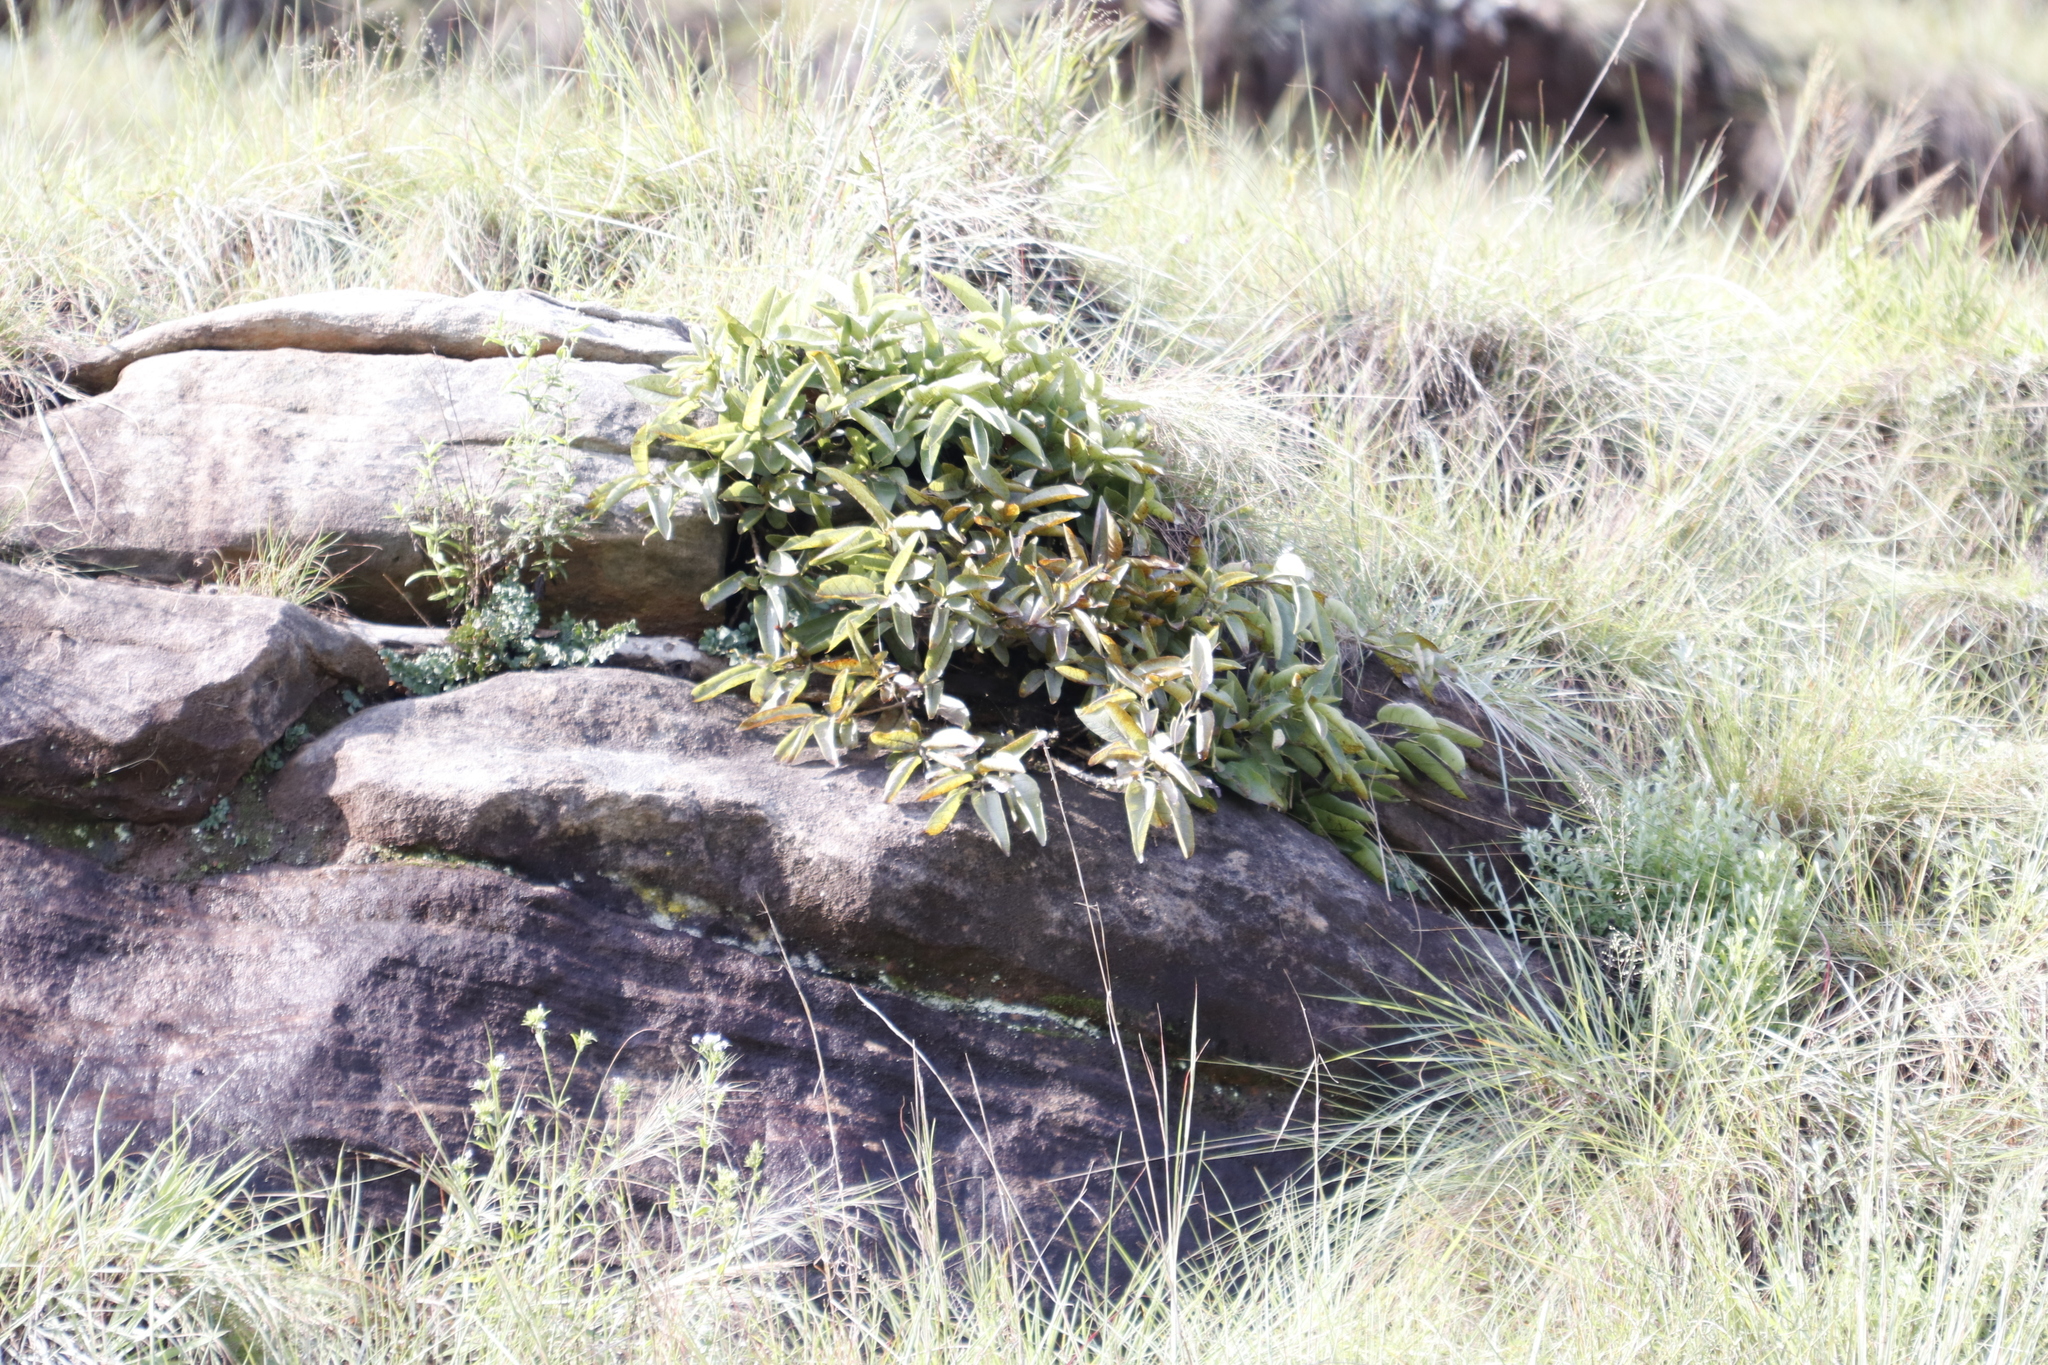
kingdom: Plantae
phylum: Tracheophyta
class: Magnoliopsida
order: Rosales
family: Moraceae
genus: Ficus
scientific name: Ficus ingens
